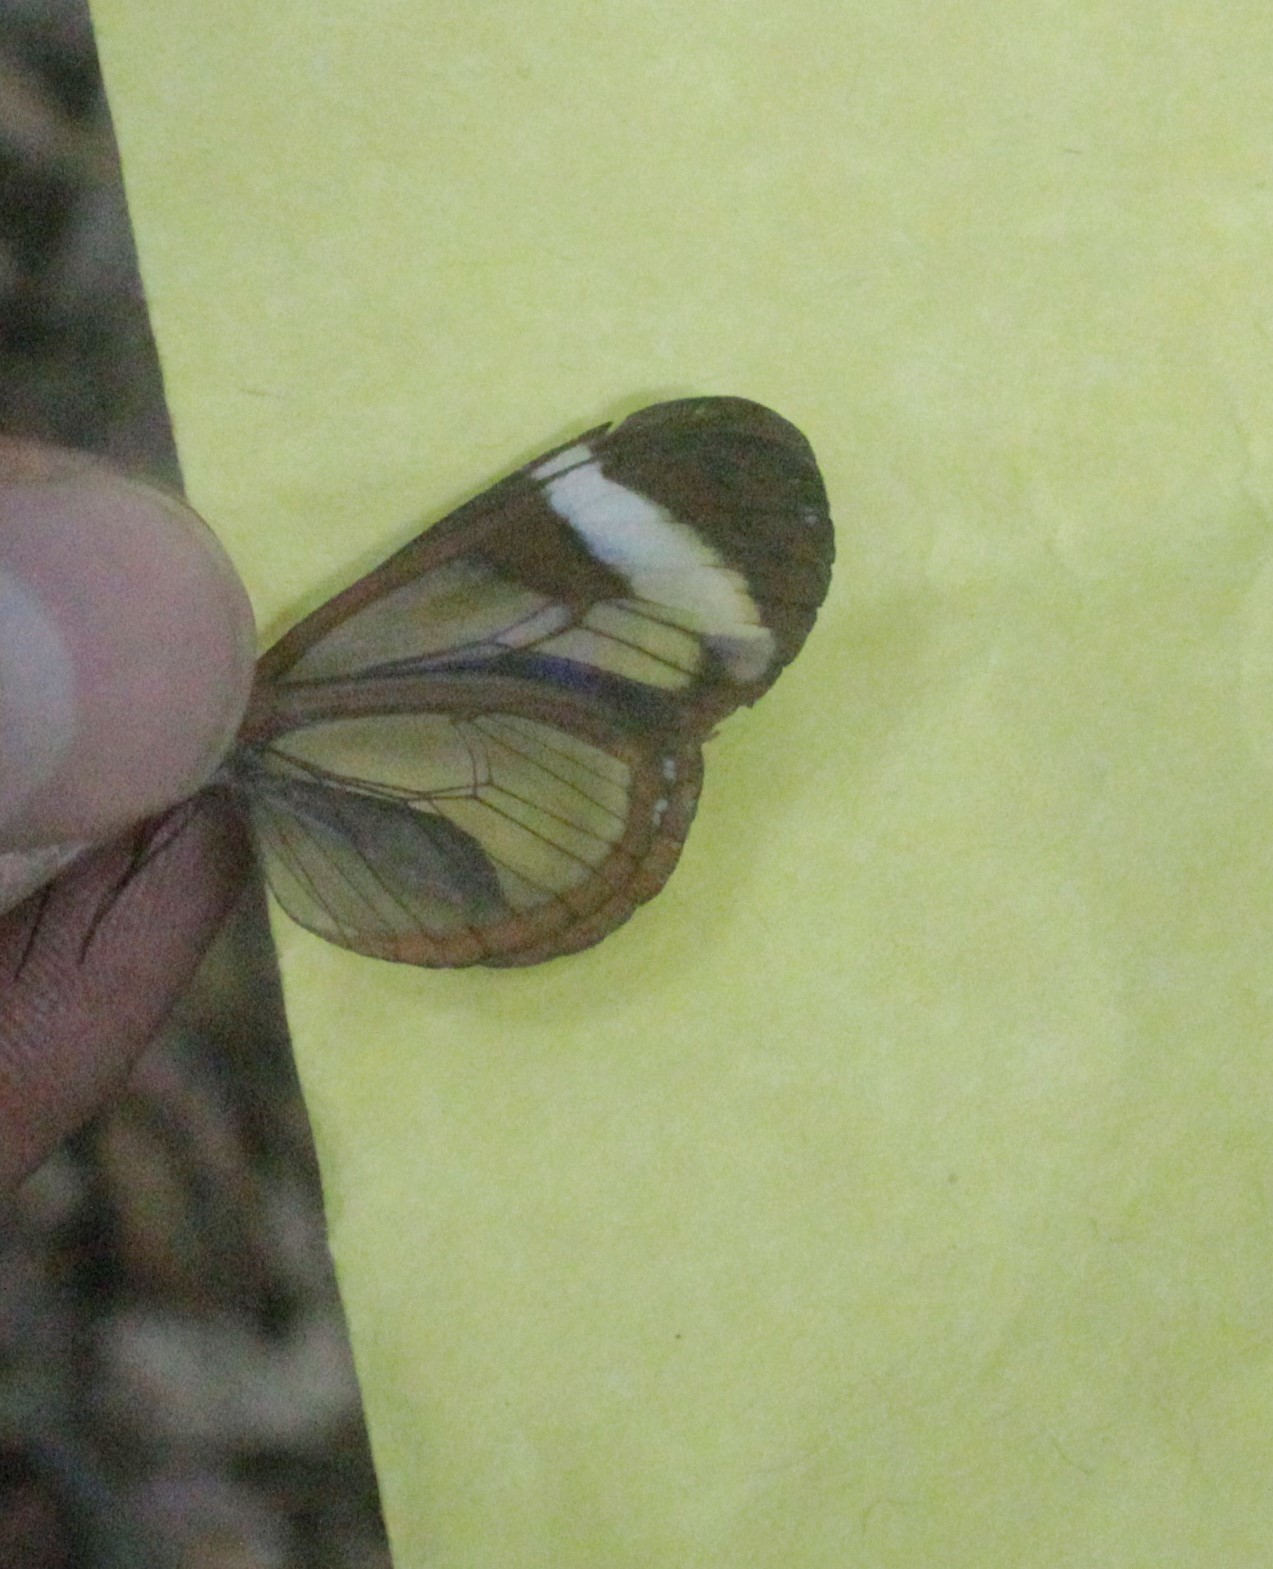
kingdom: Animalia
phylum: Arthropoda
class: Insecta
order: Lepidoptera
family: Nymphalidae
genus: Oleria
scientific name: Oleria paula
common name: Paula's clearwing
